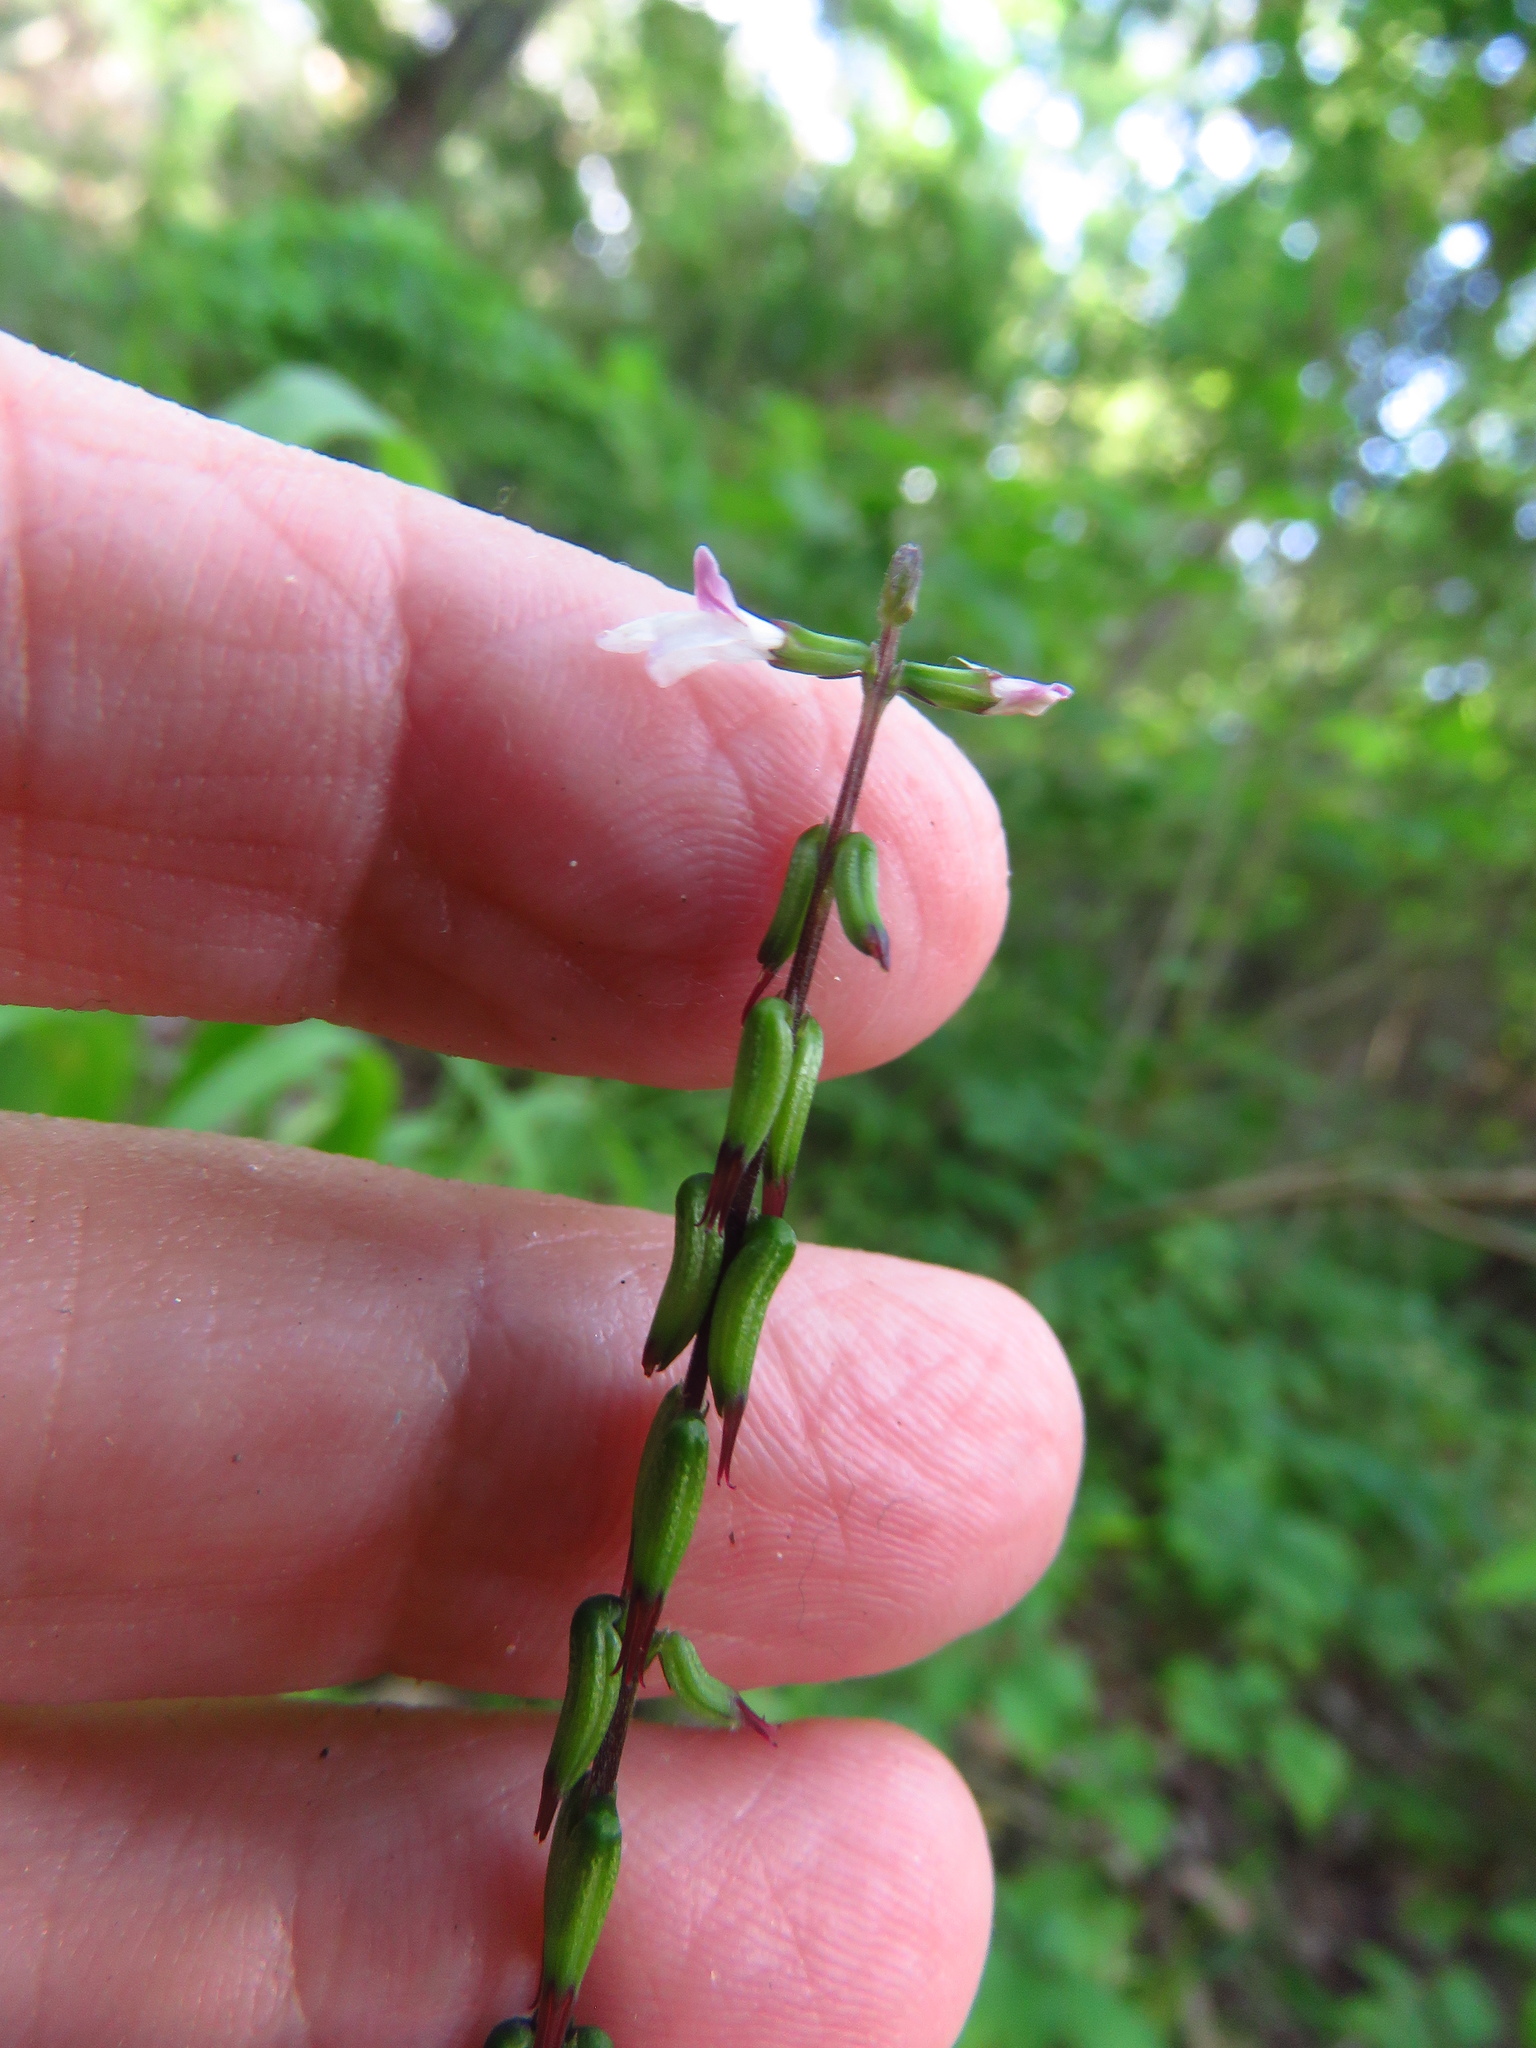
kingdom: Plantae
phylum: Tracheophyta
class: Magnoliopsida
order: Lamiales
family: Phrymaceae
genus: Phryma
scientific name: Phryma leptostachya
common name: American lopseed
